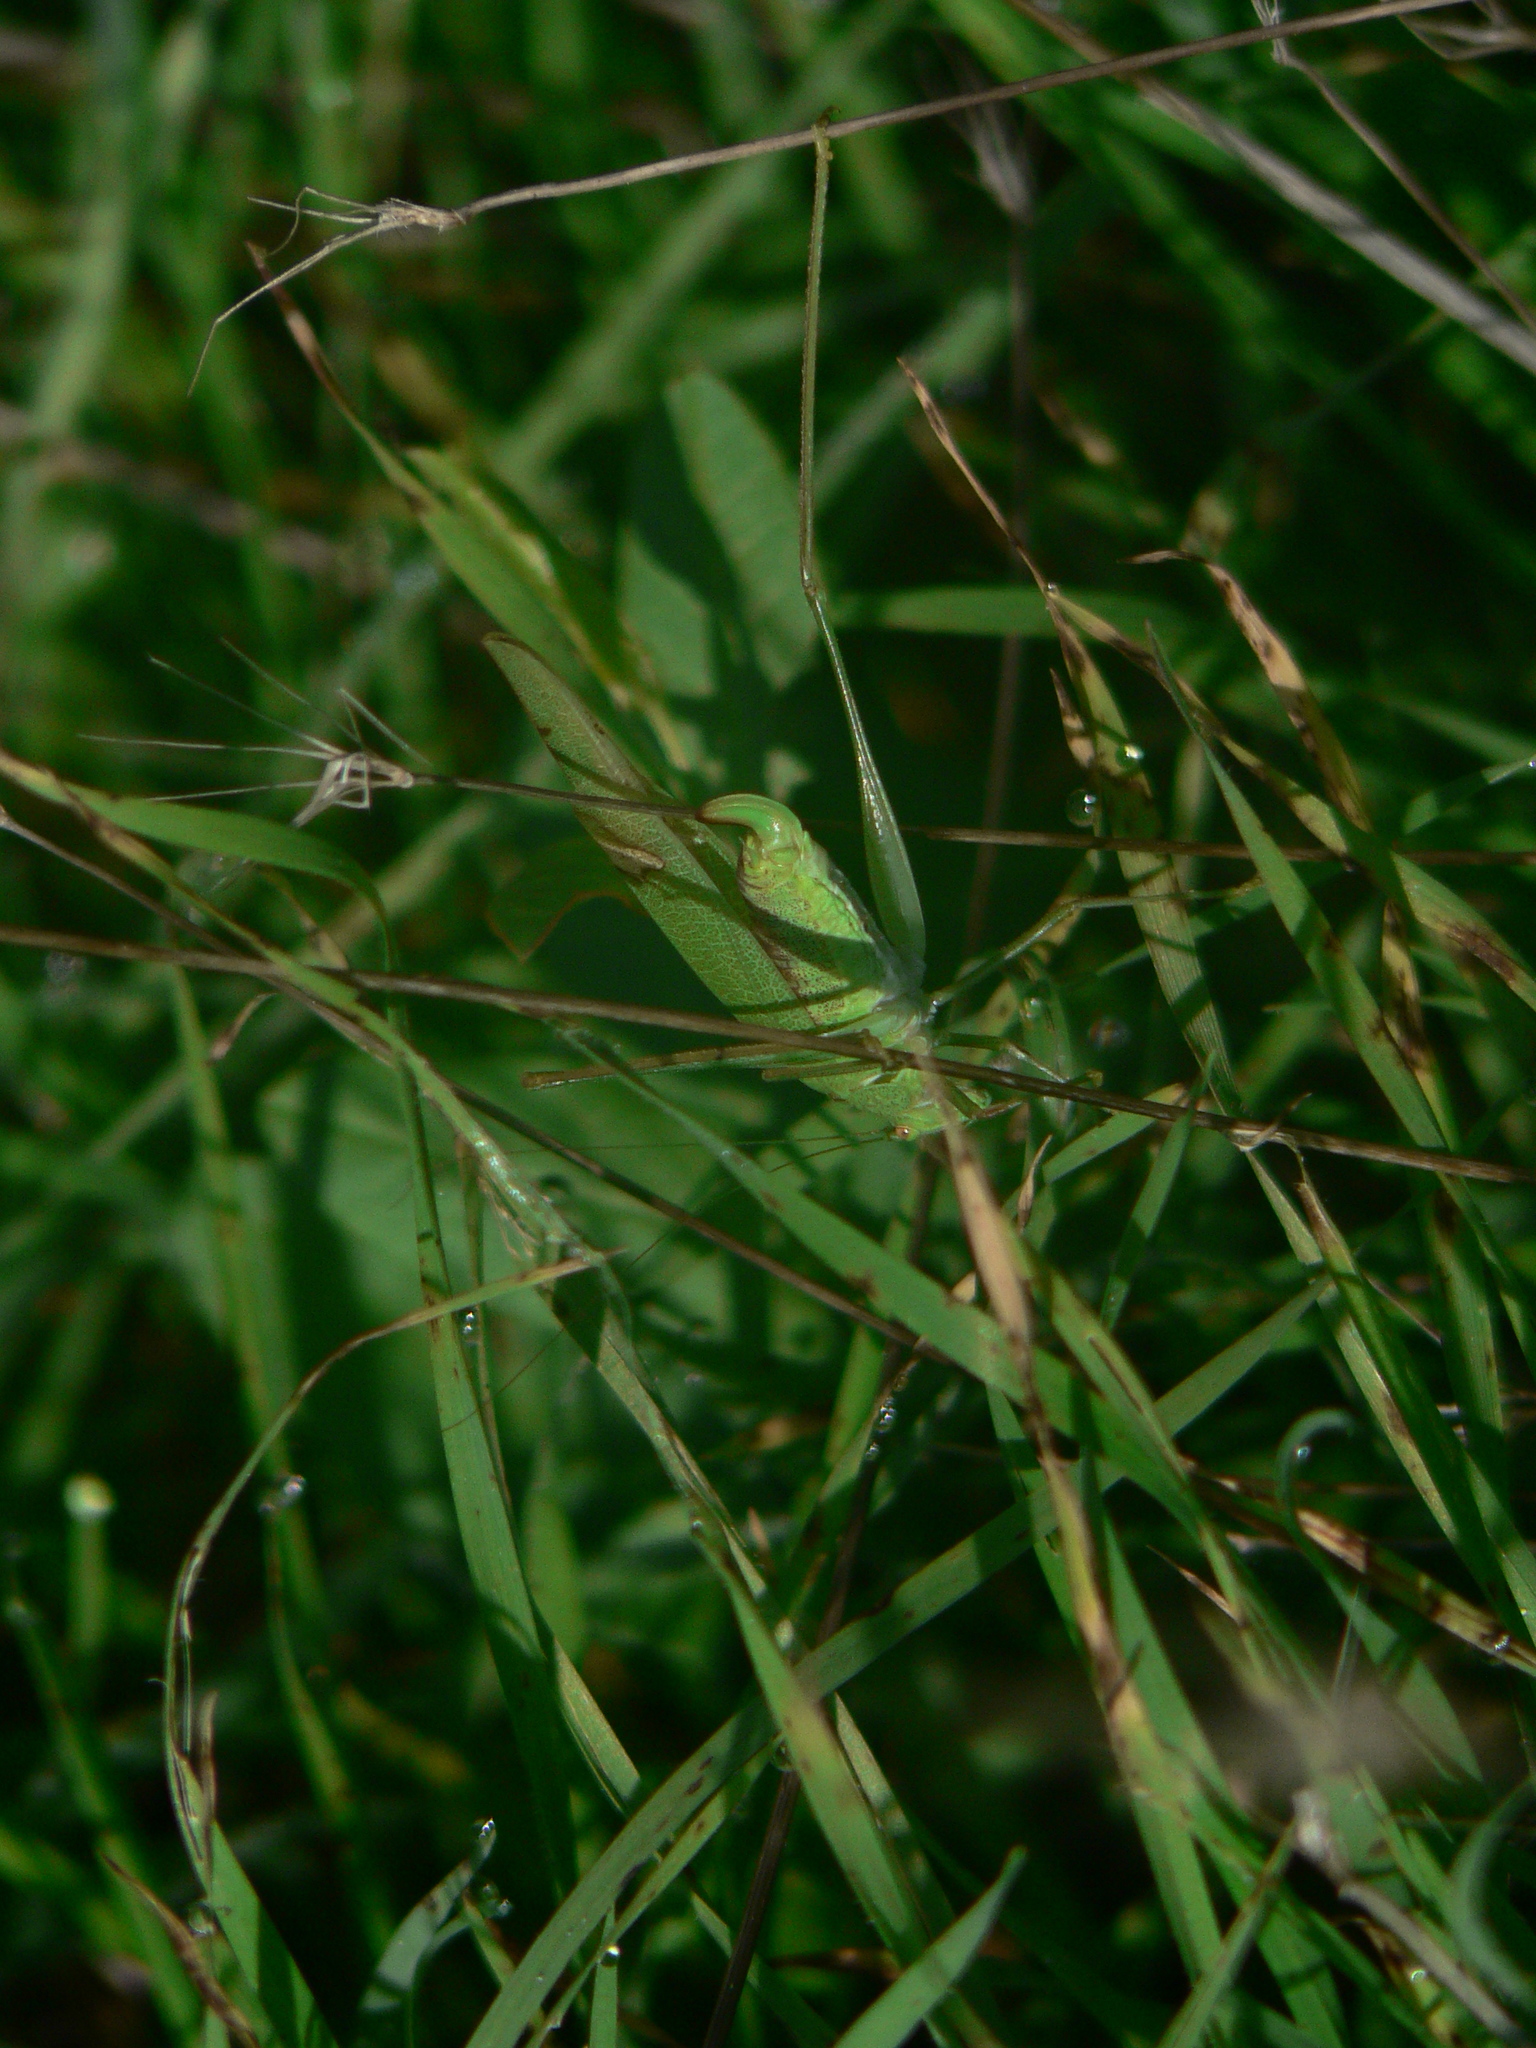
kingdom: Animalia
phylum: Arthropoda
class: Insecta
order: Orthoptera
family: Tettigoniidae
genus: Phaneroptera
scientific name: Phaneroptera nana
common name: Southern sickle bush-cricket
